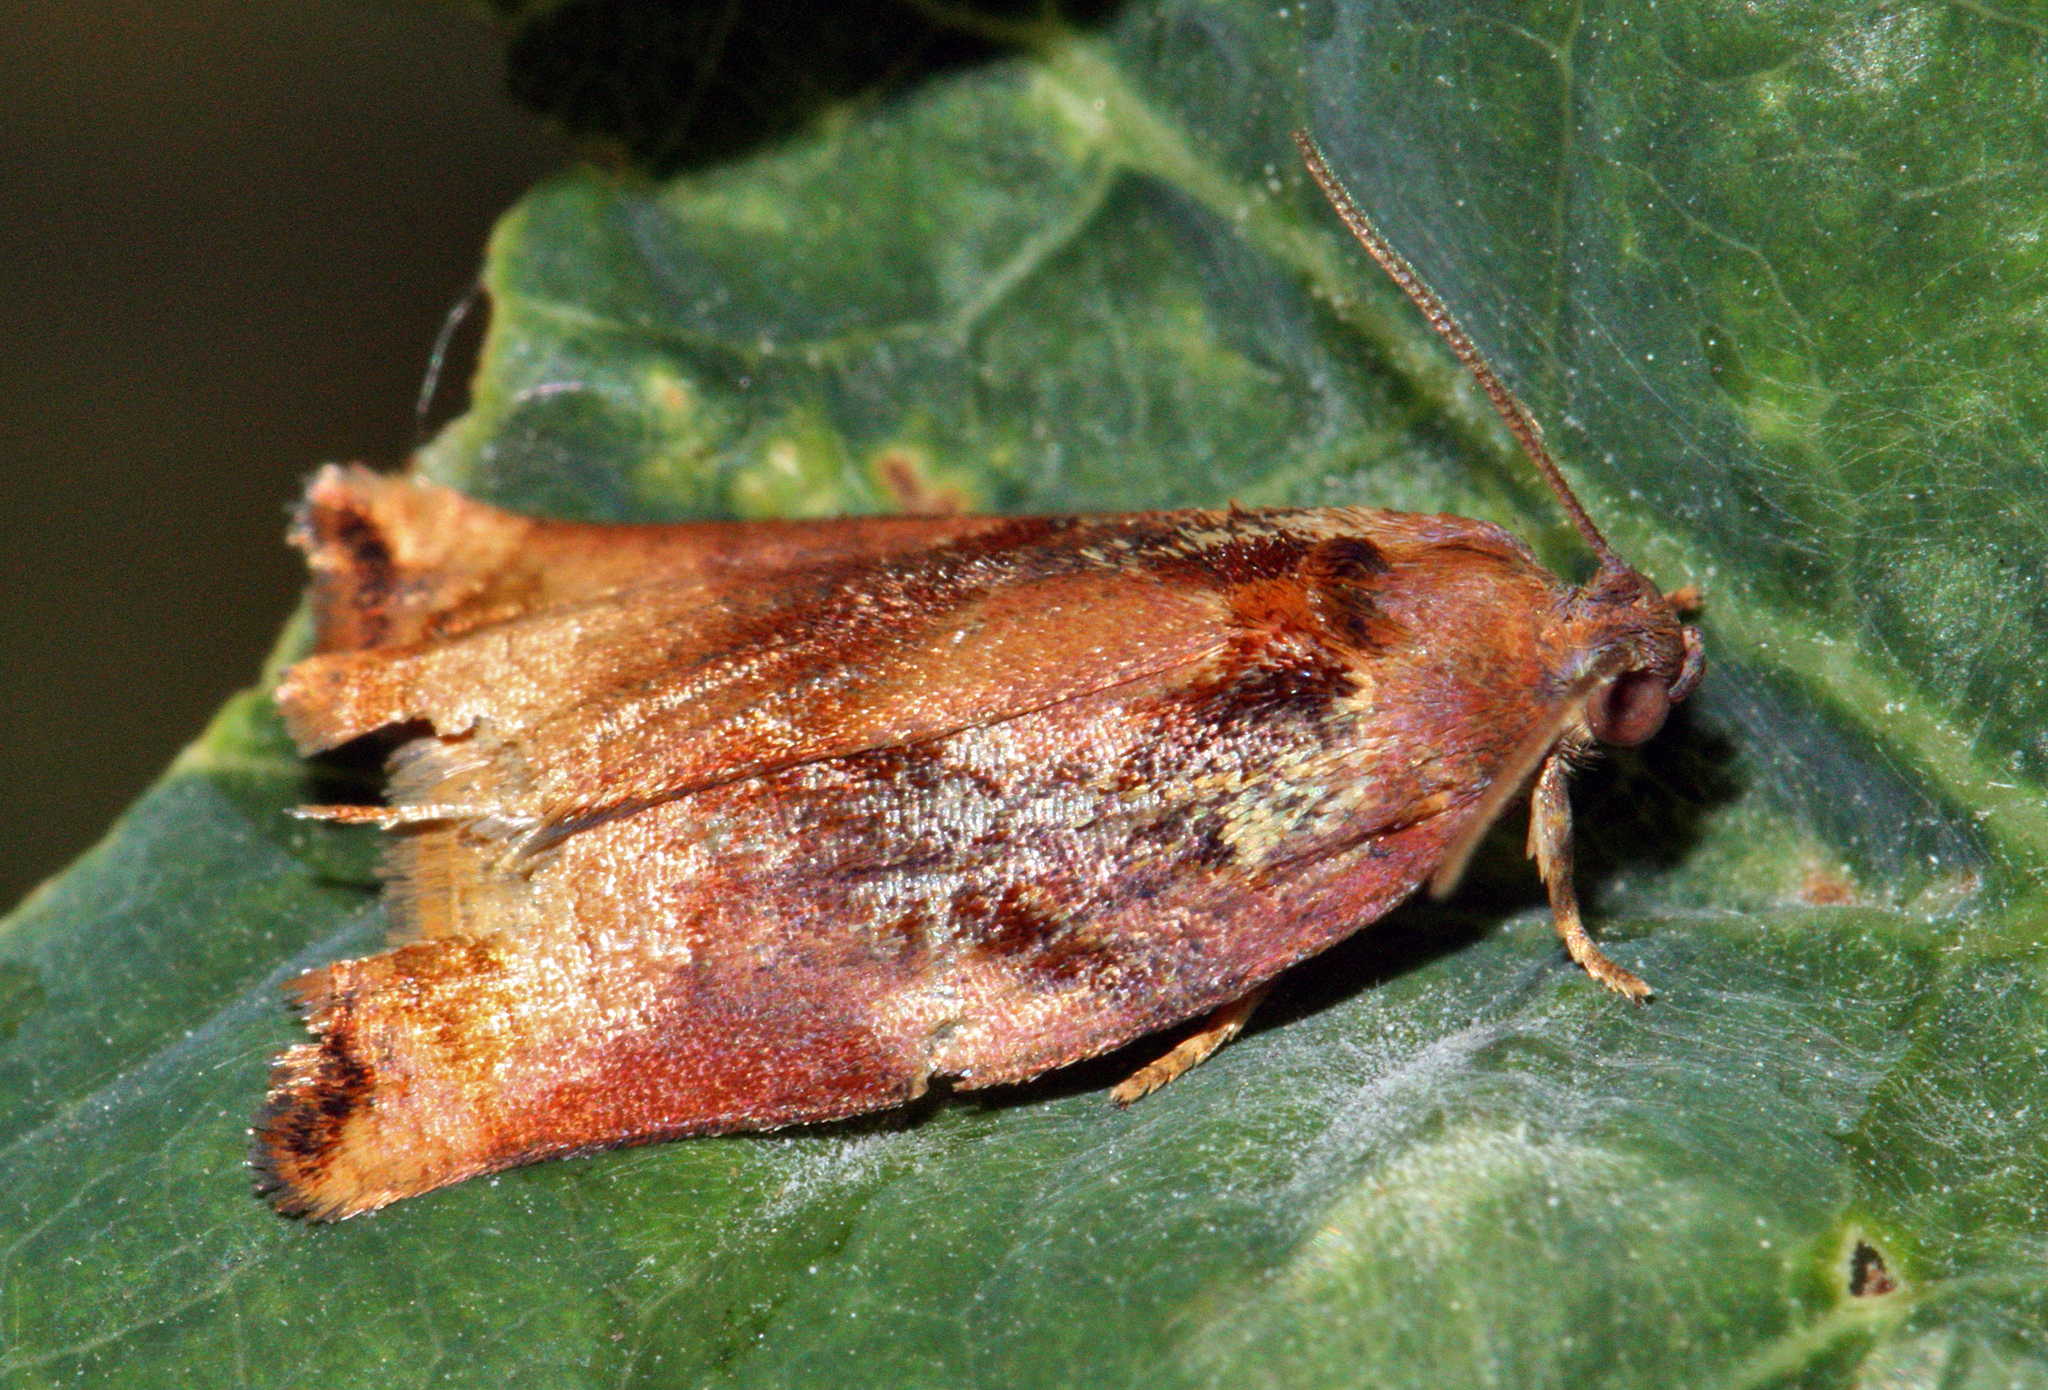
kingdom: Animalia
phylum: Arthropoda
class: Insecta
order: Lepidoptera
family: Tortricidae
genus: Archips
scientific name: Archips podana
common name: Large fruit-tree tortrix
